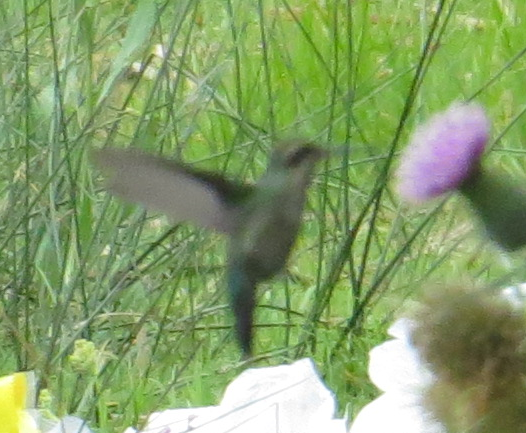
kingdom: Animalia
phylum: Chordata
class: Aves
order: Apodiformes
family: Trochilidae
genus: Chlorostilbon
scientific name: Chlorostilbon lucidus
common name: Glittering-bellied emerald
